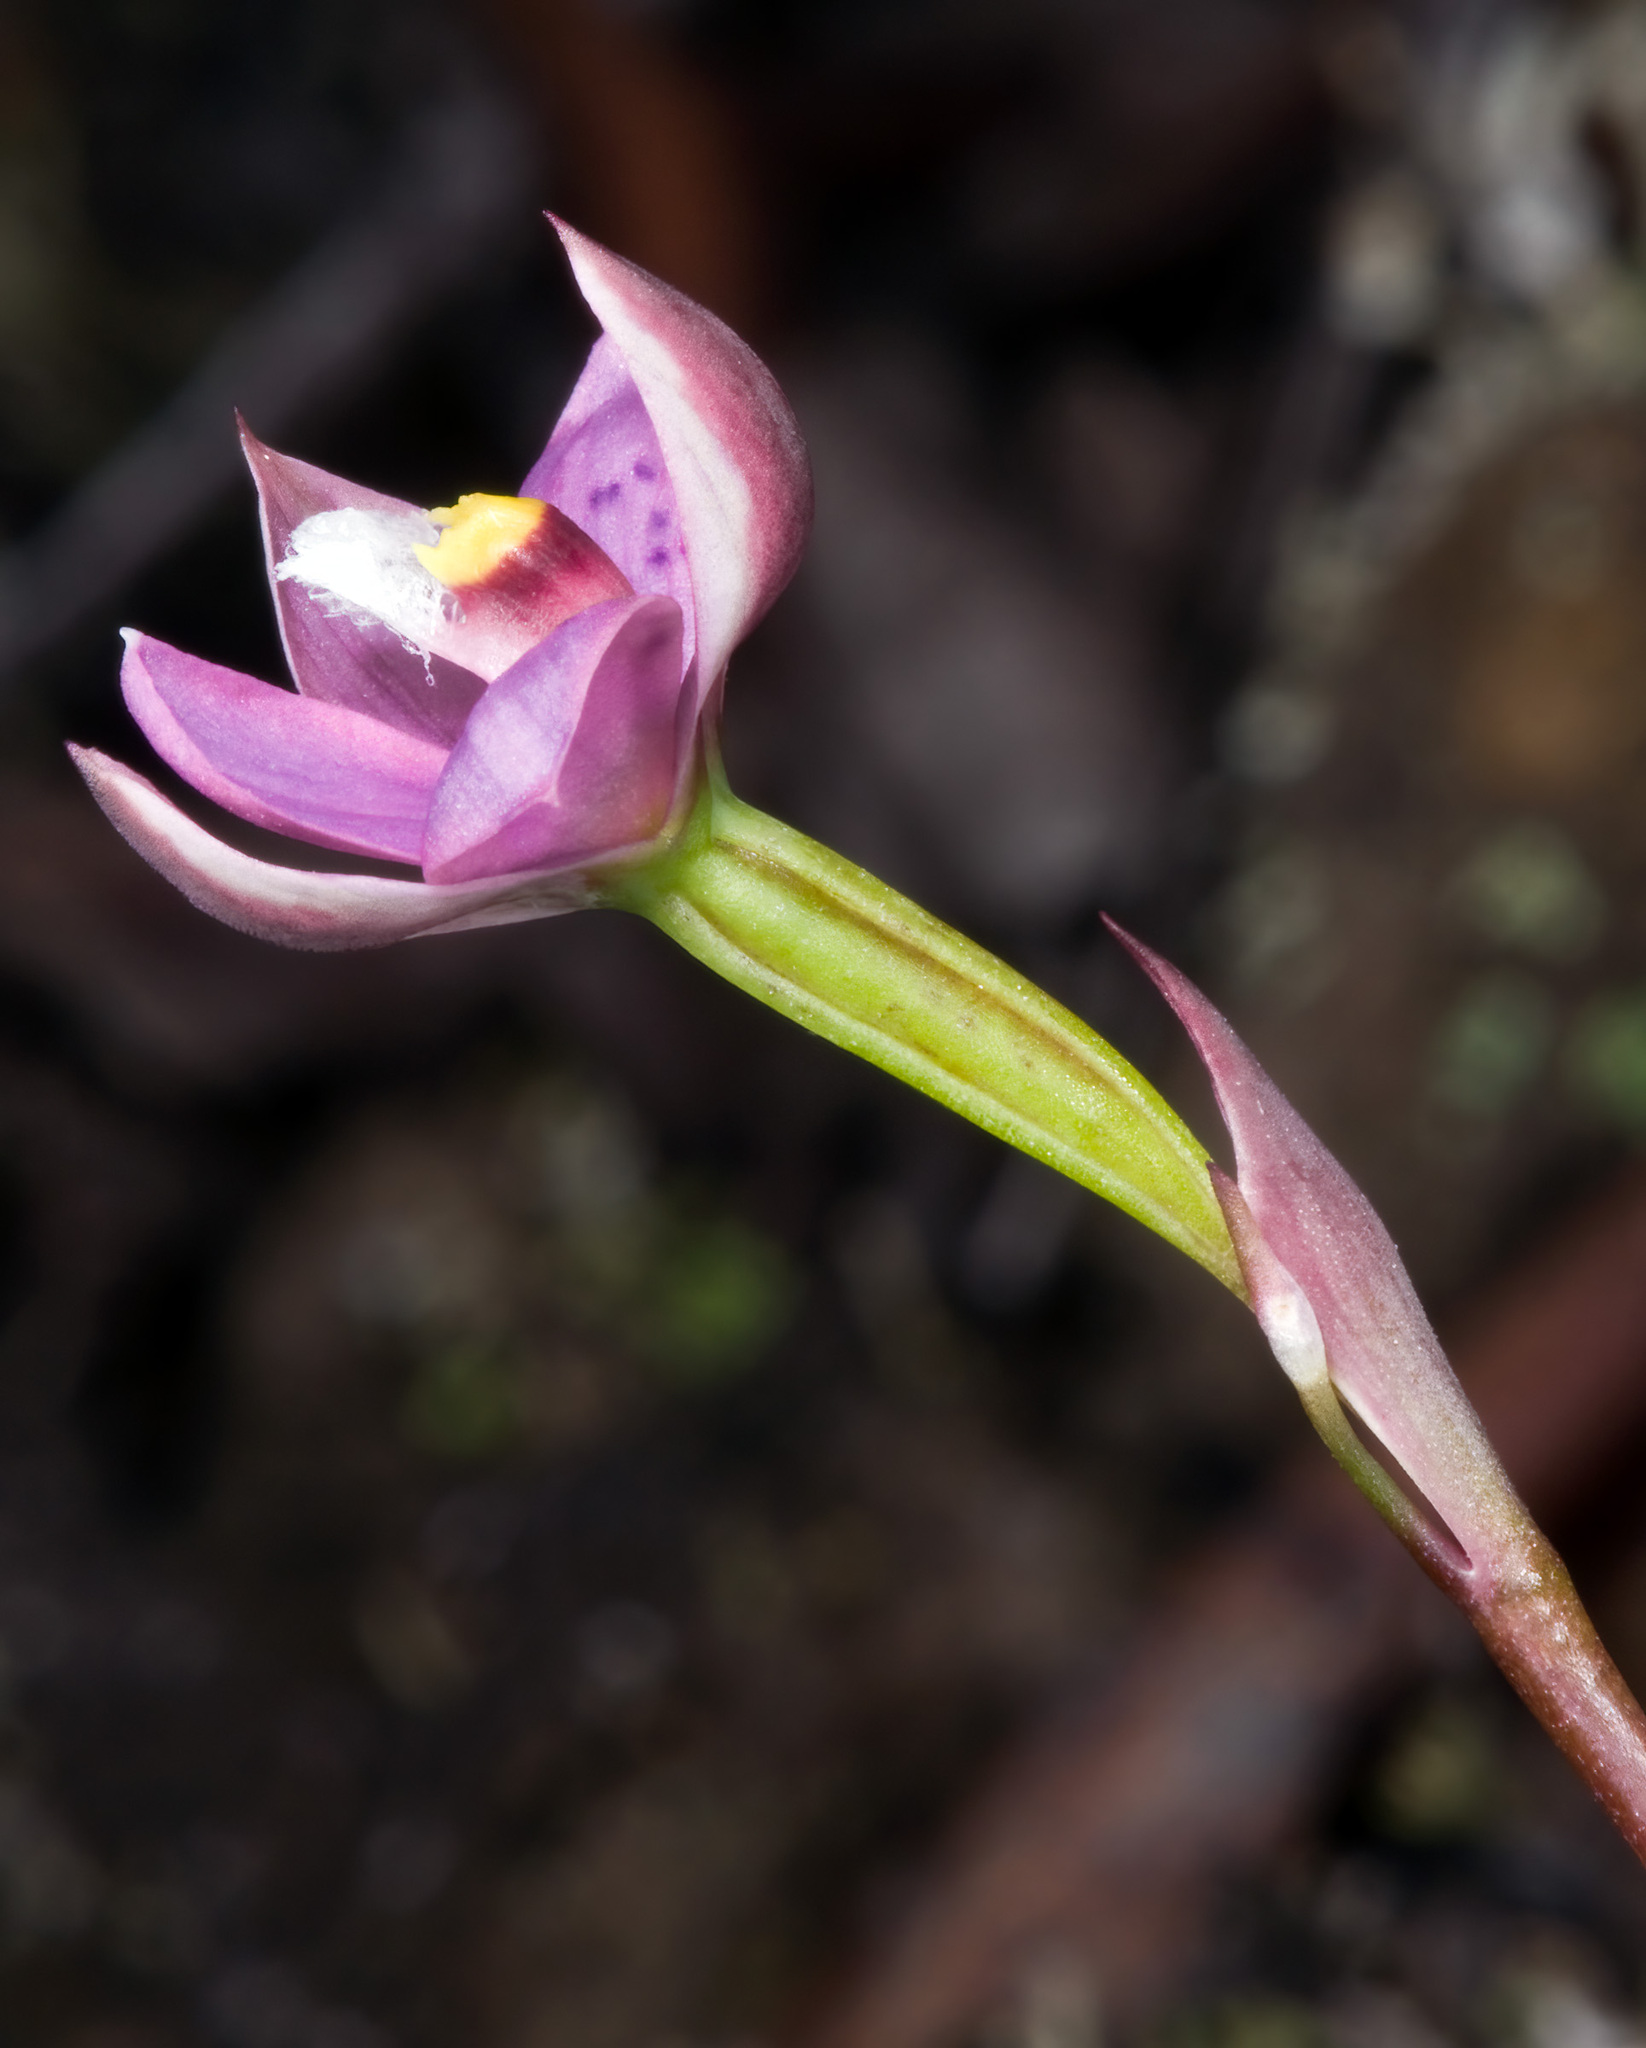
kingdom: Plantae
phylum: Tracheophyta
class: Liliopsida
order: Asparagales
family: Orchidaceae
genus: Thelymitra
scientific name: Thelymitra nervosa
